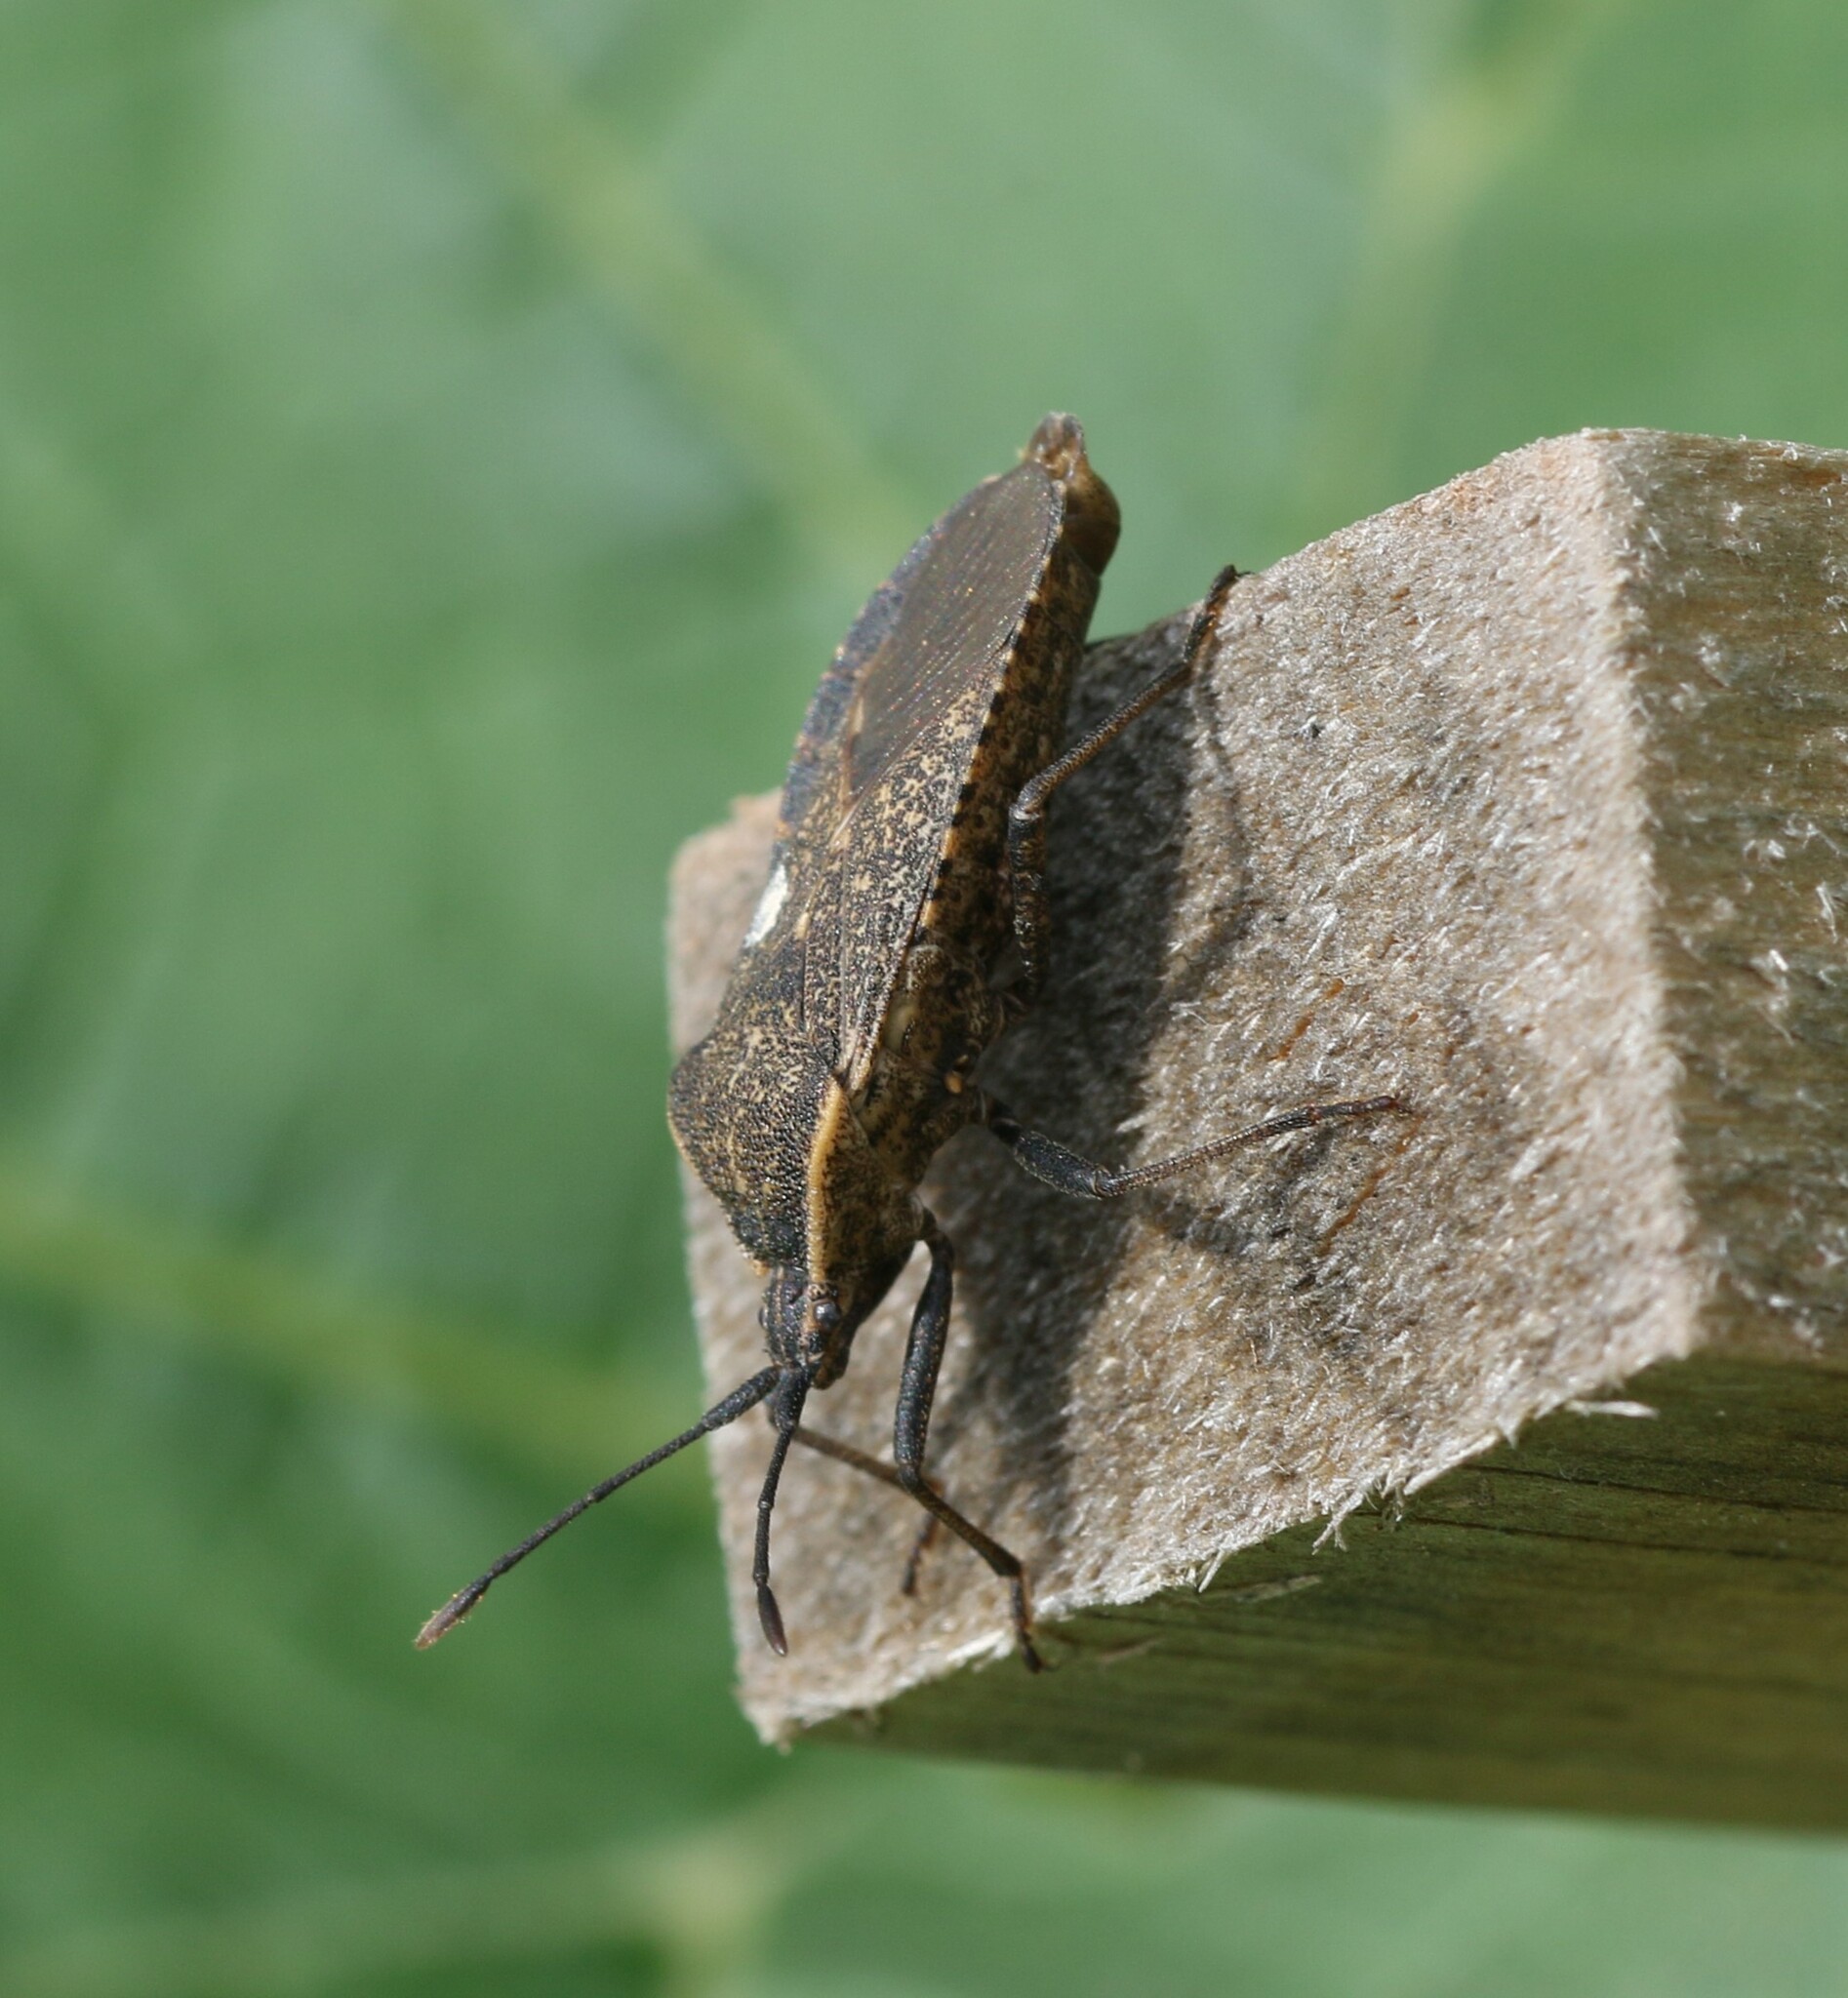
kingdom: Animalia
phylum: Arthropoda
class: Insecta
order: Hemiptera
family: Coreidae
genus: Anasa
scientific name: Anasa tristis
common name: Squash bug
